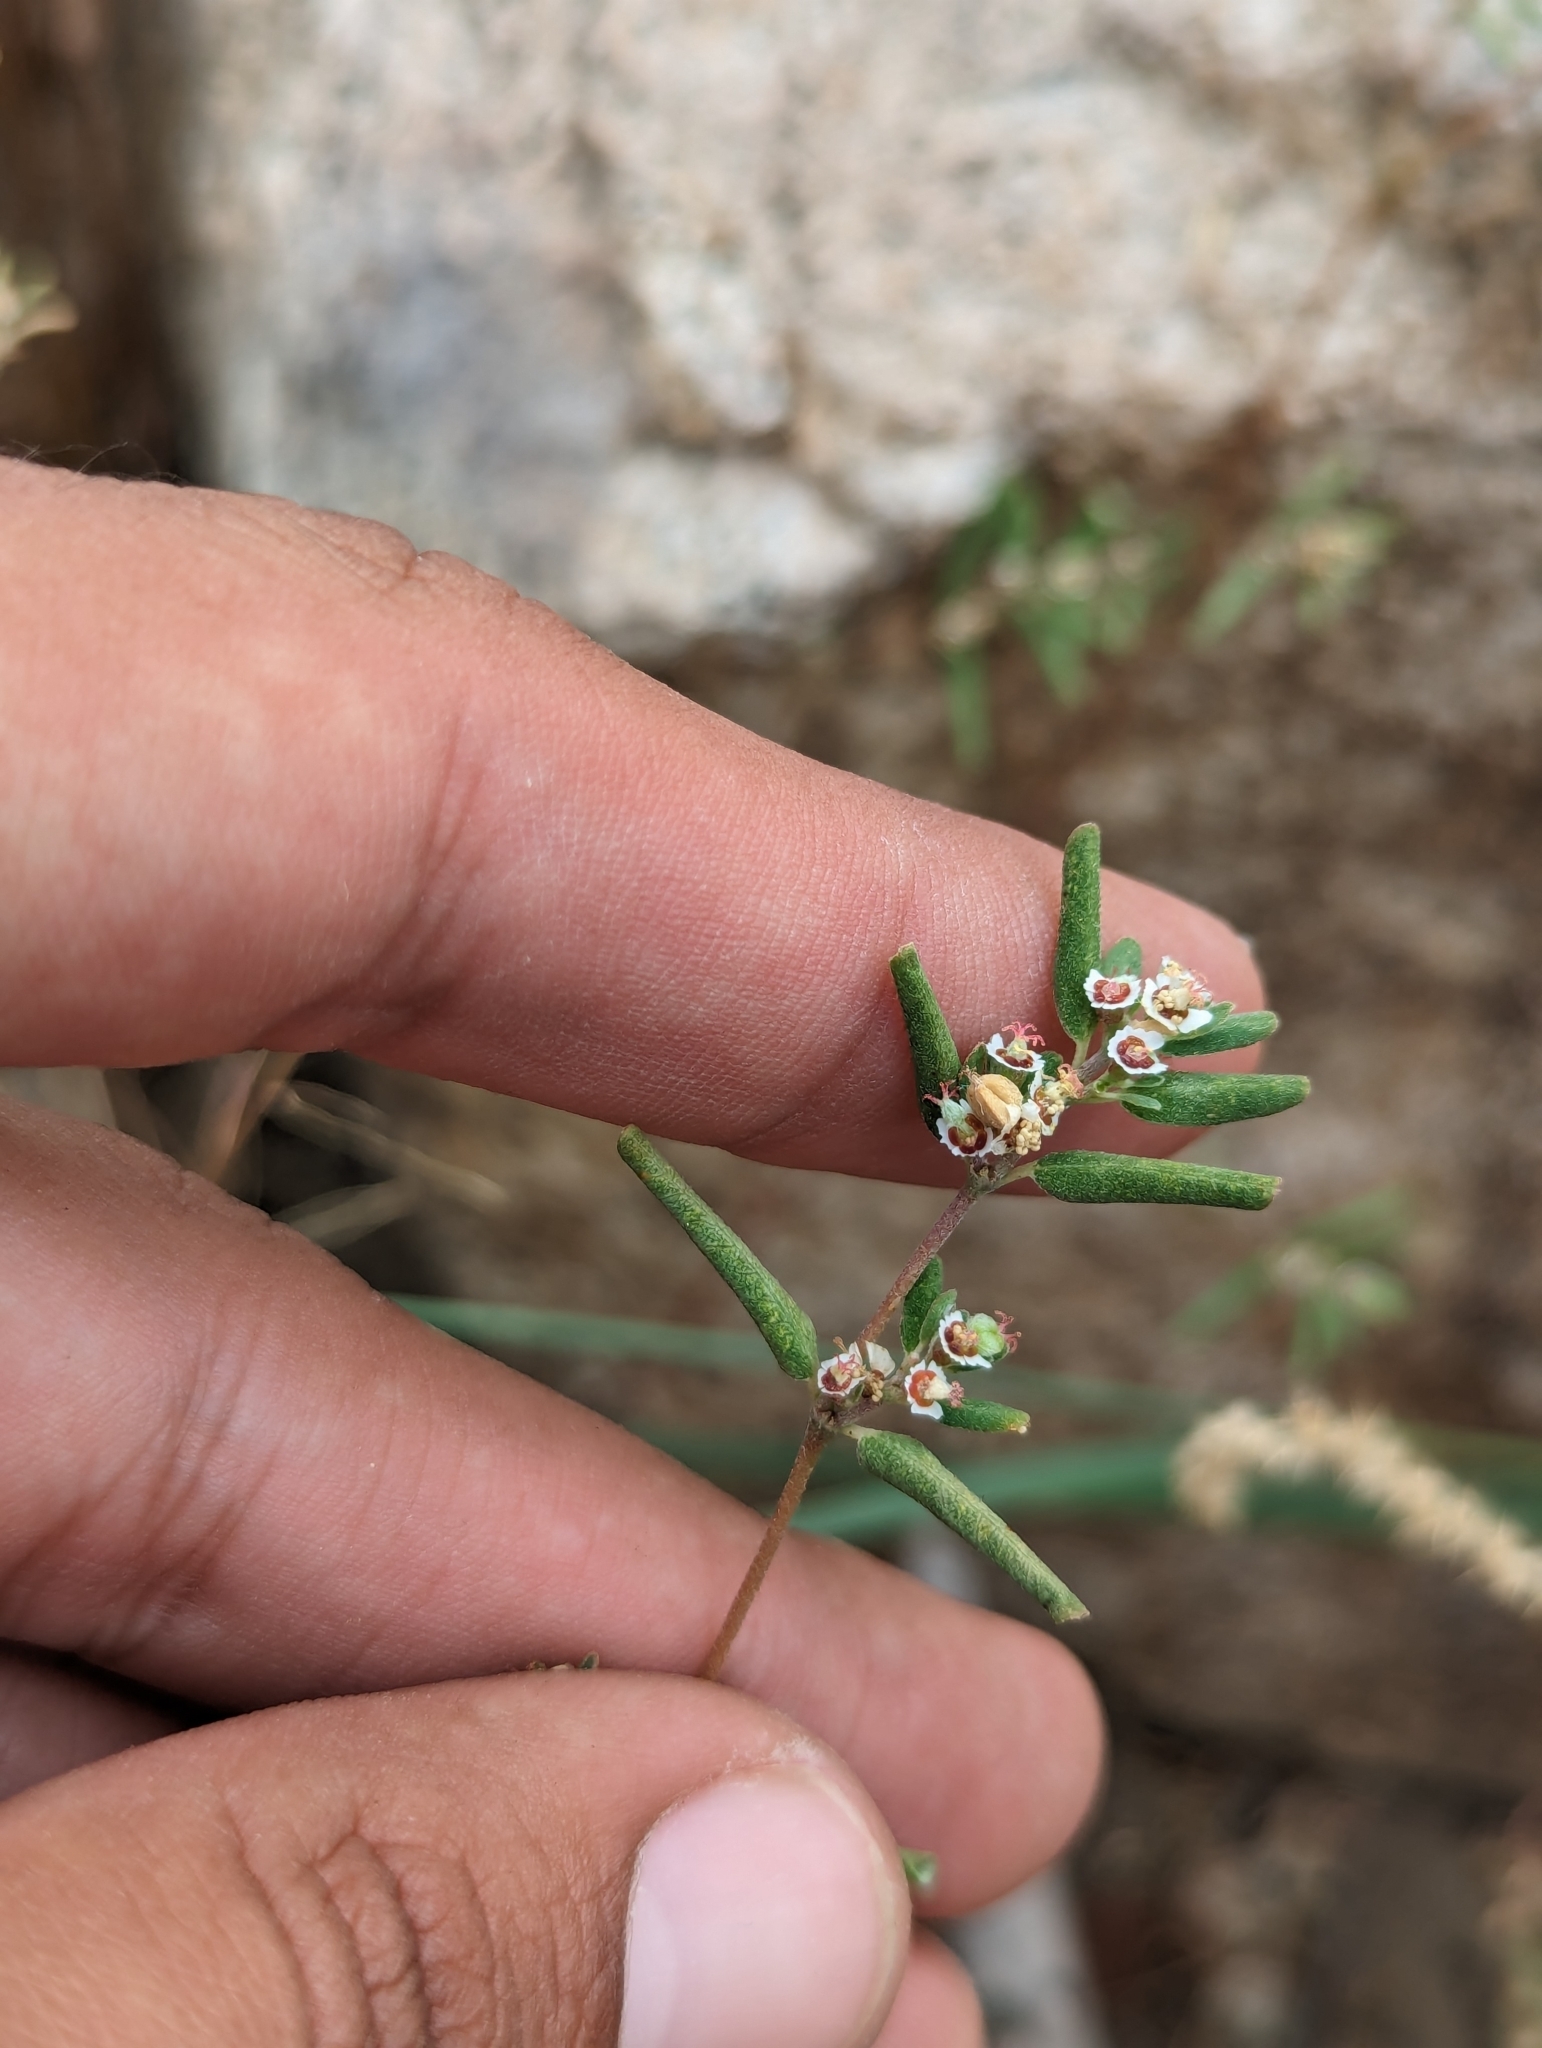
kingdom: Plantae
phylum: Tracheophyta
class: Magnoliopsida
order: Malpighiales
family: Euphorbiaceae
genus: Euphorbia
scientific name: Euphorbia pediculifera
